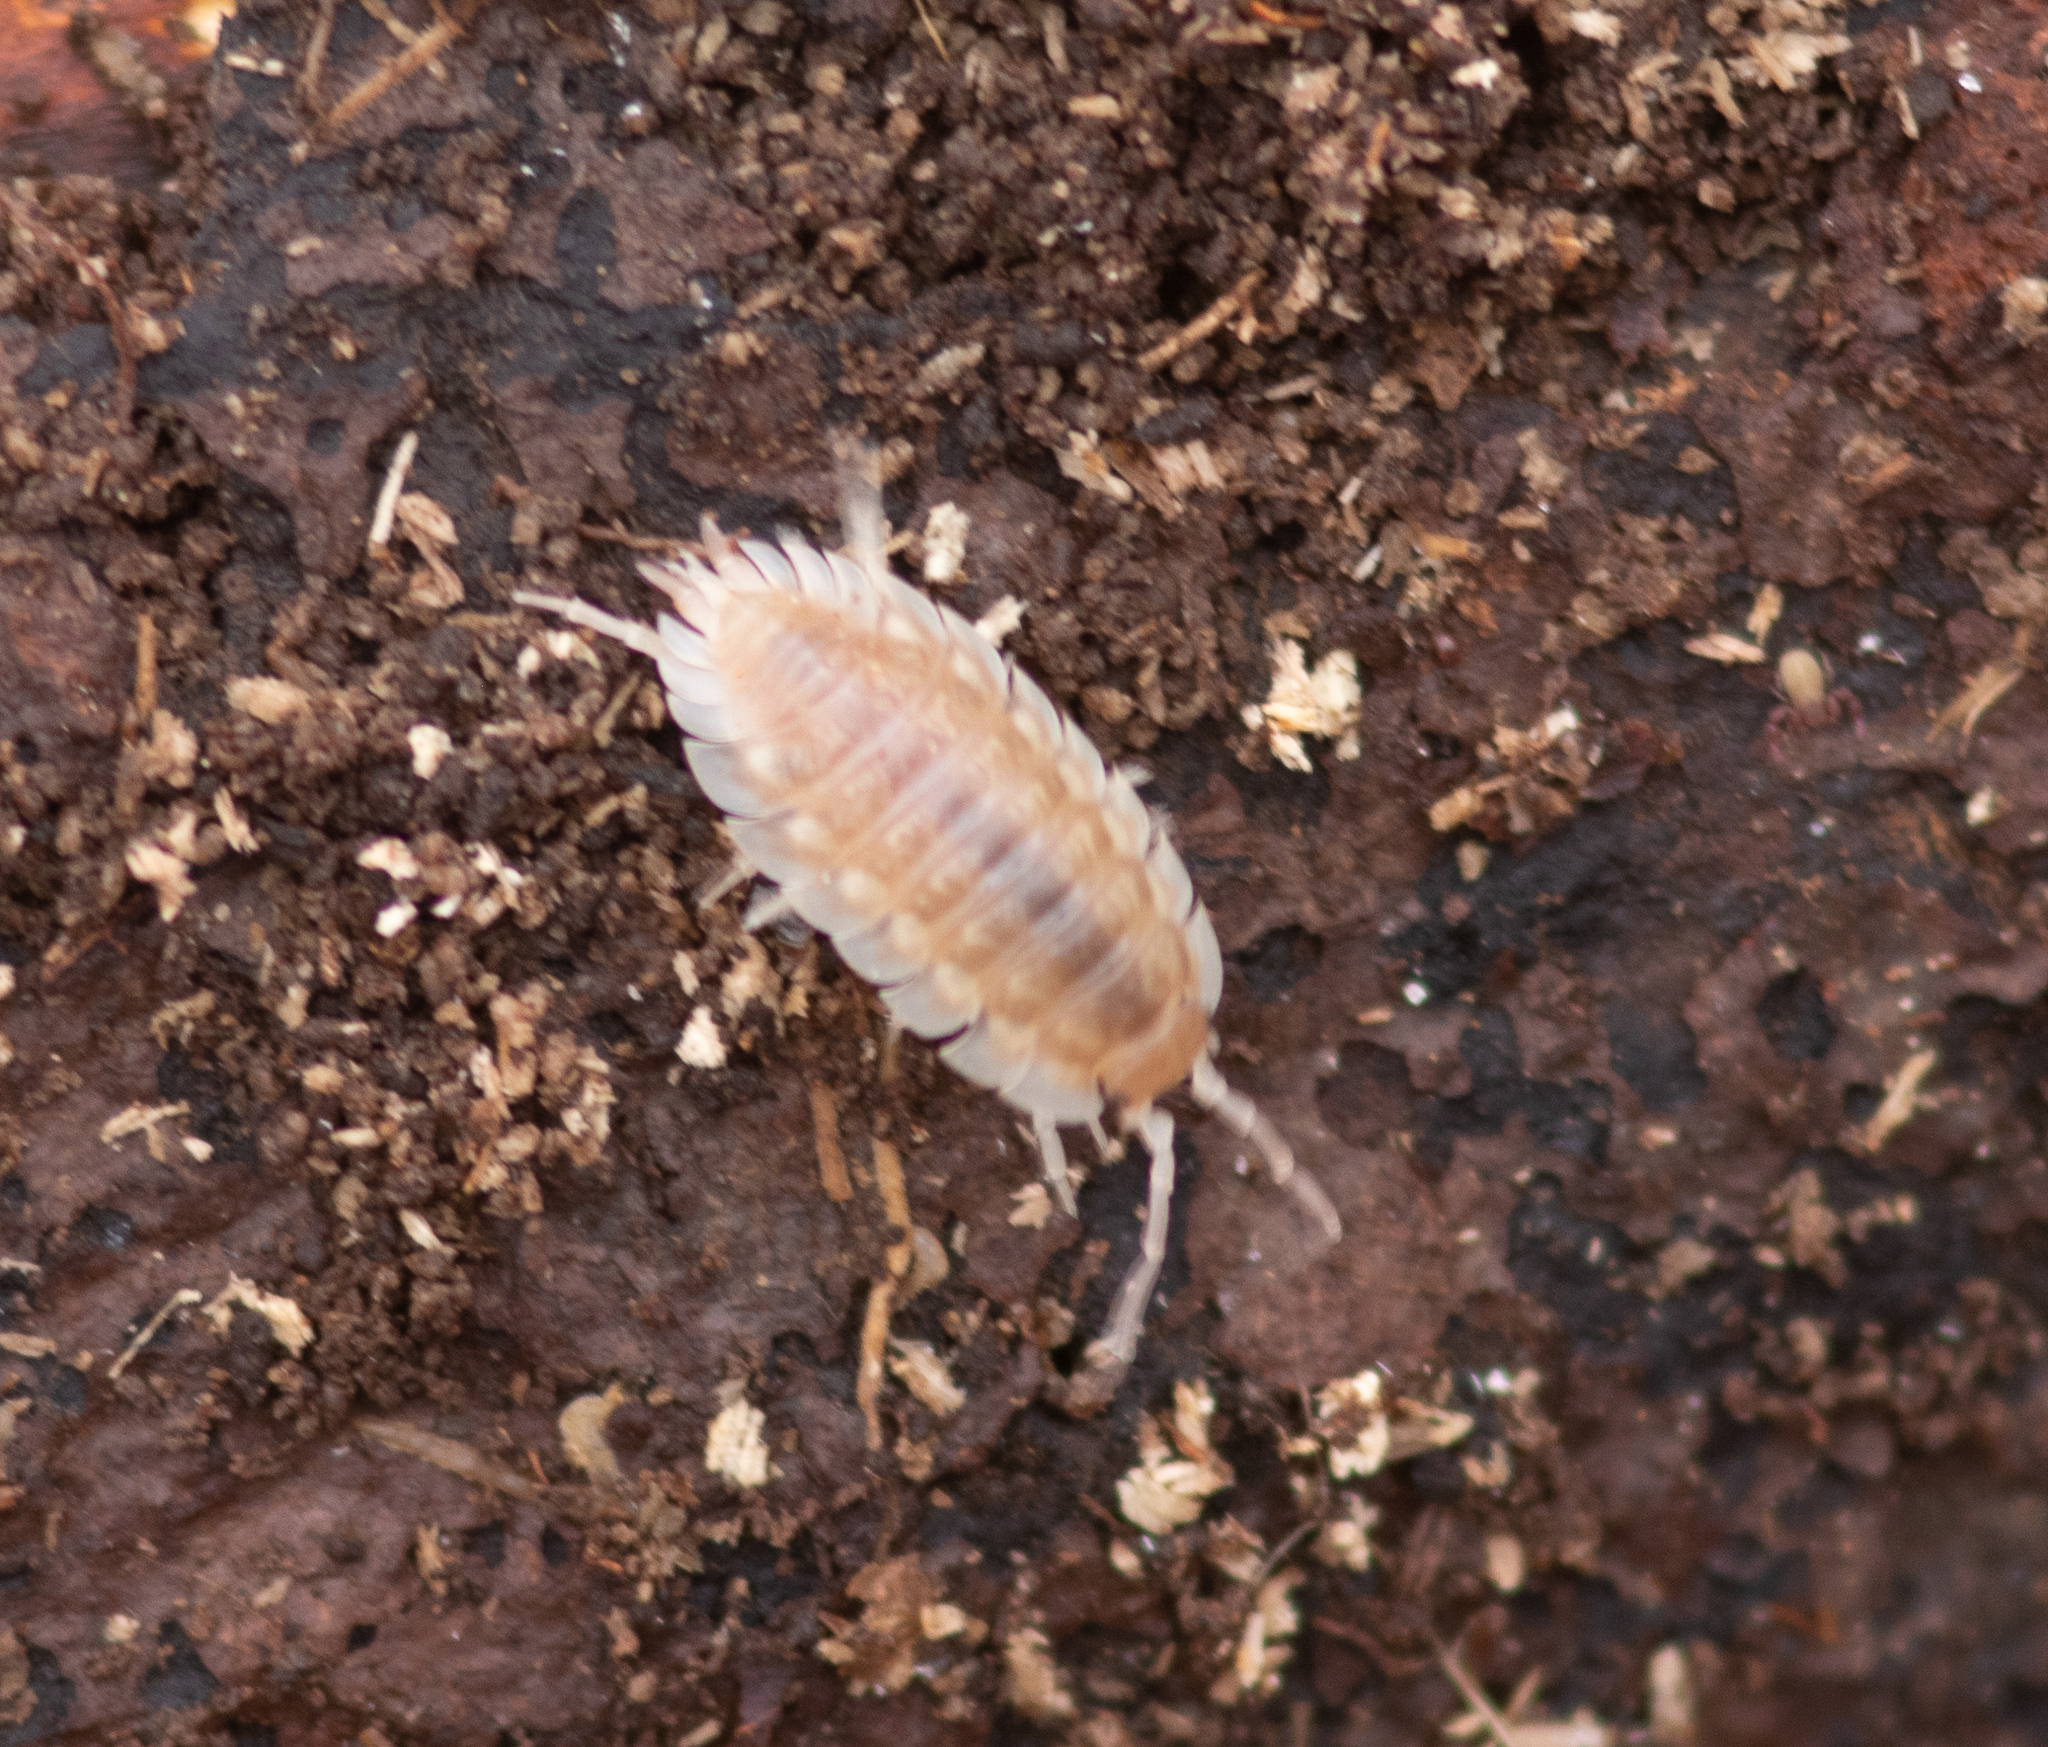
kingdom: Animalia
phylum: Arthropoda
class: Malacostraca
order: Isopoda
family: Oniscidae
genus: Oniscus
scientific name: Oniscus asellus
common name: Common shiny woodlouse
